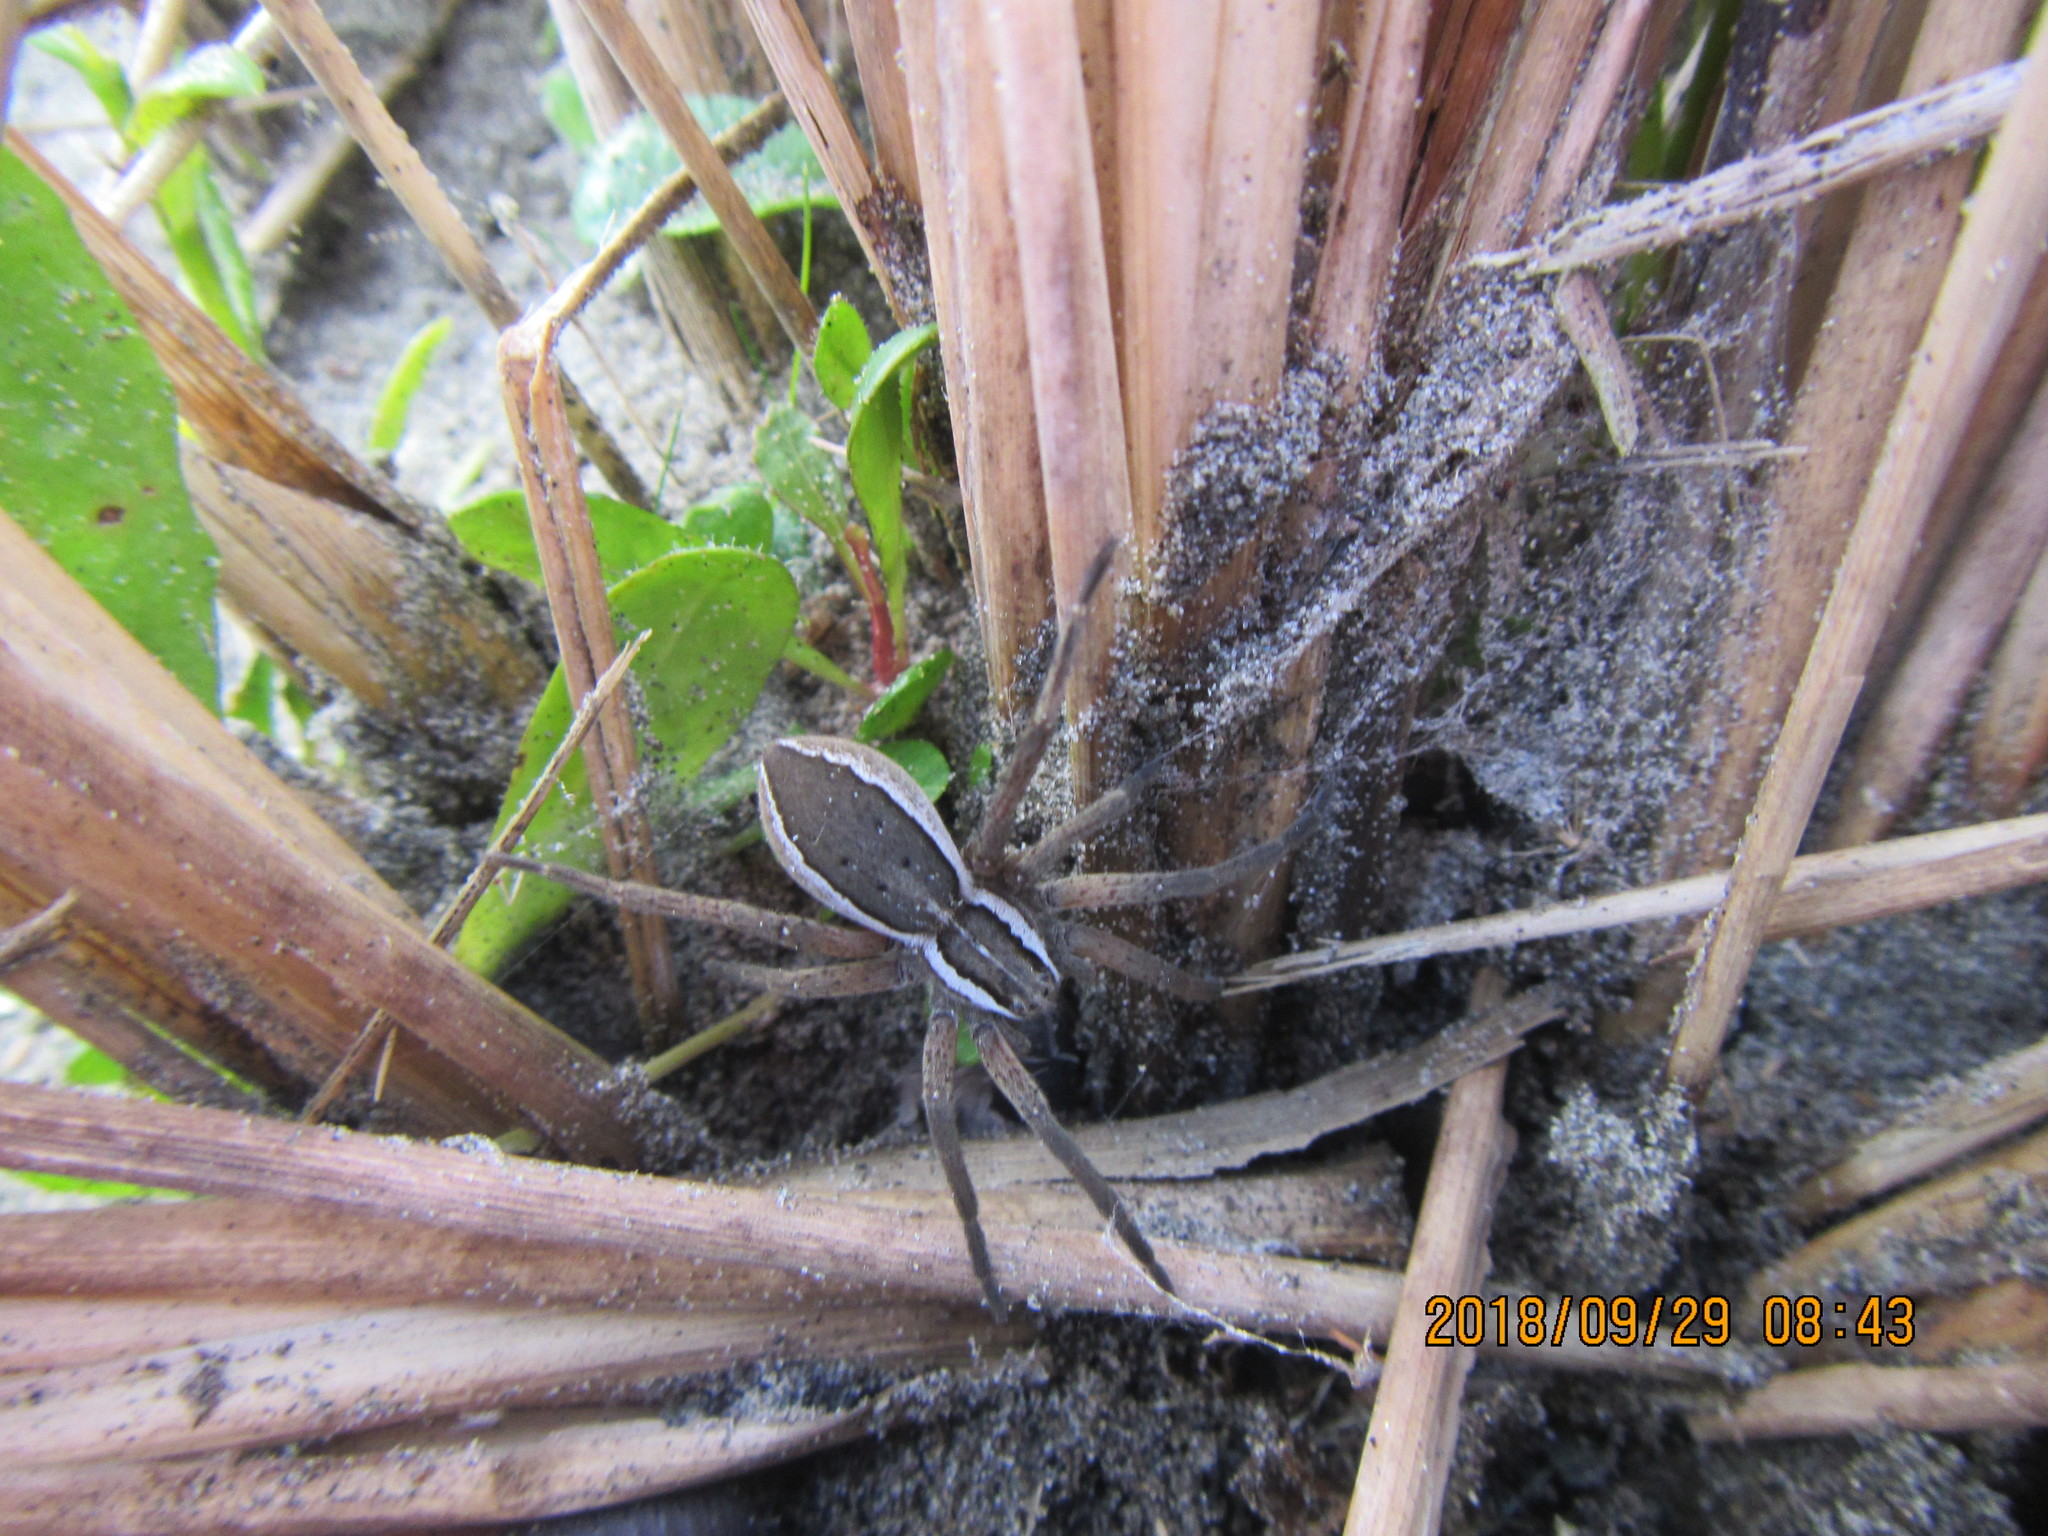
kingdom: Animalia
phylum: Arthropoda
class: Arachnida
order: Araneae
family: Pisauridae
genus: Dolomedes
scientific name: Dolomedes minor
